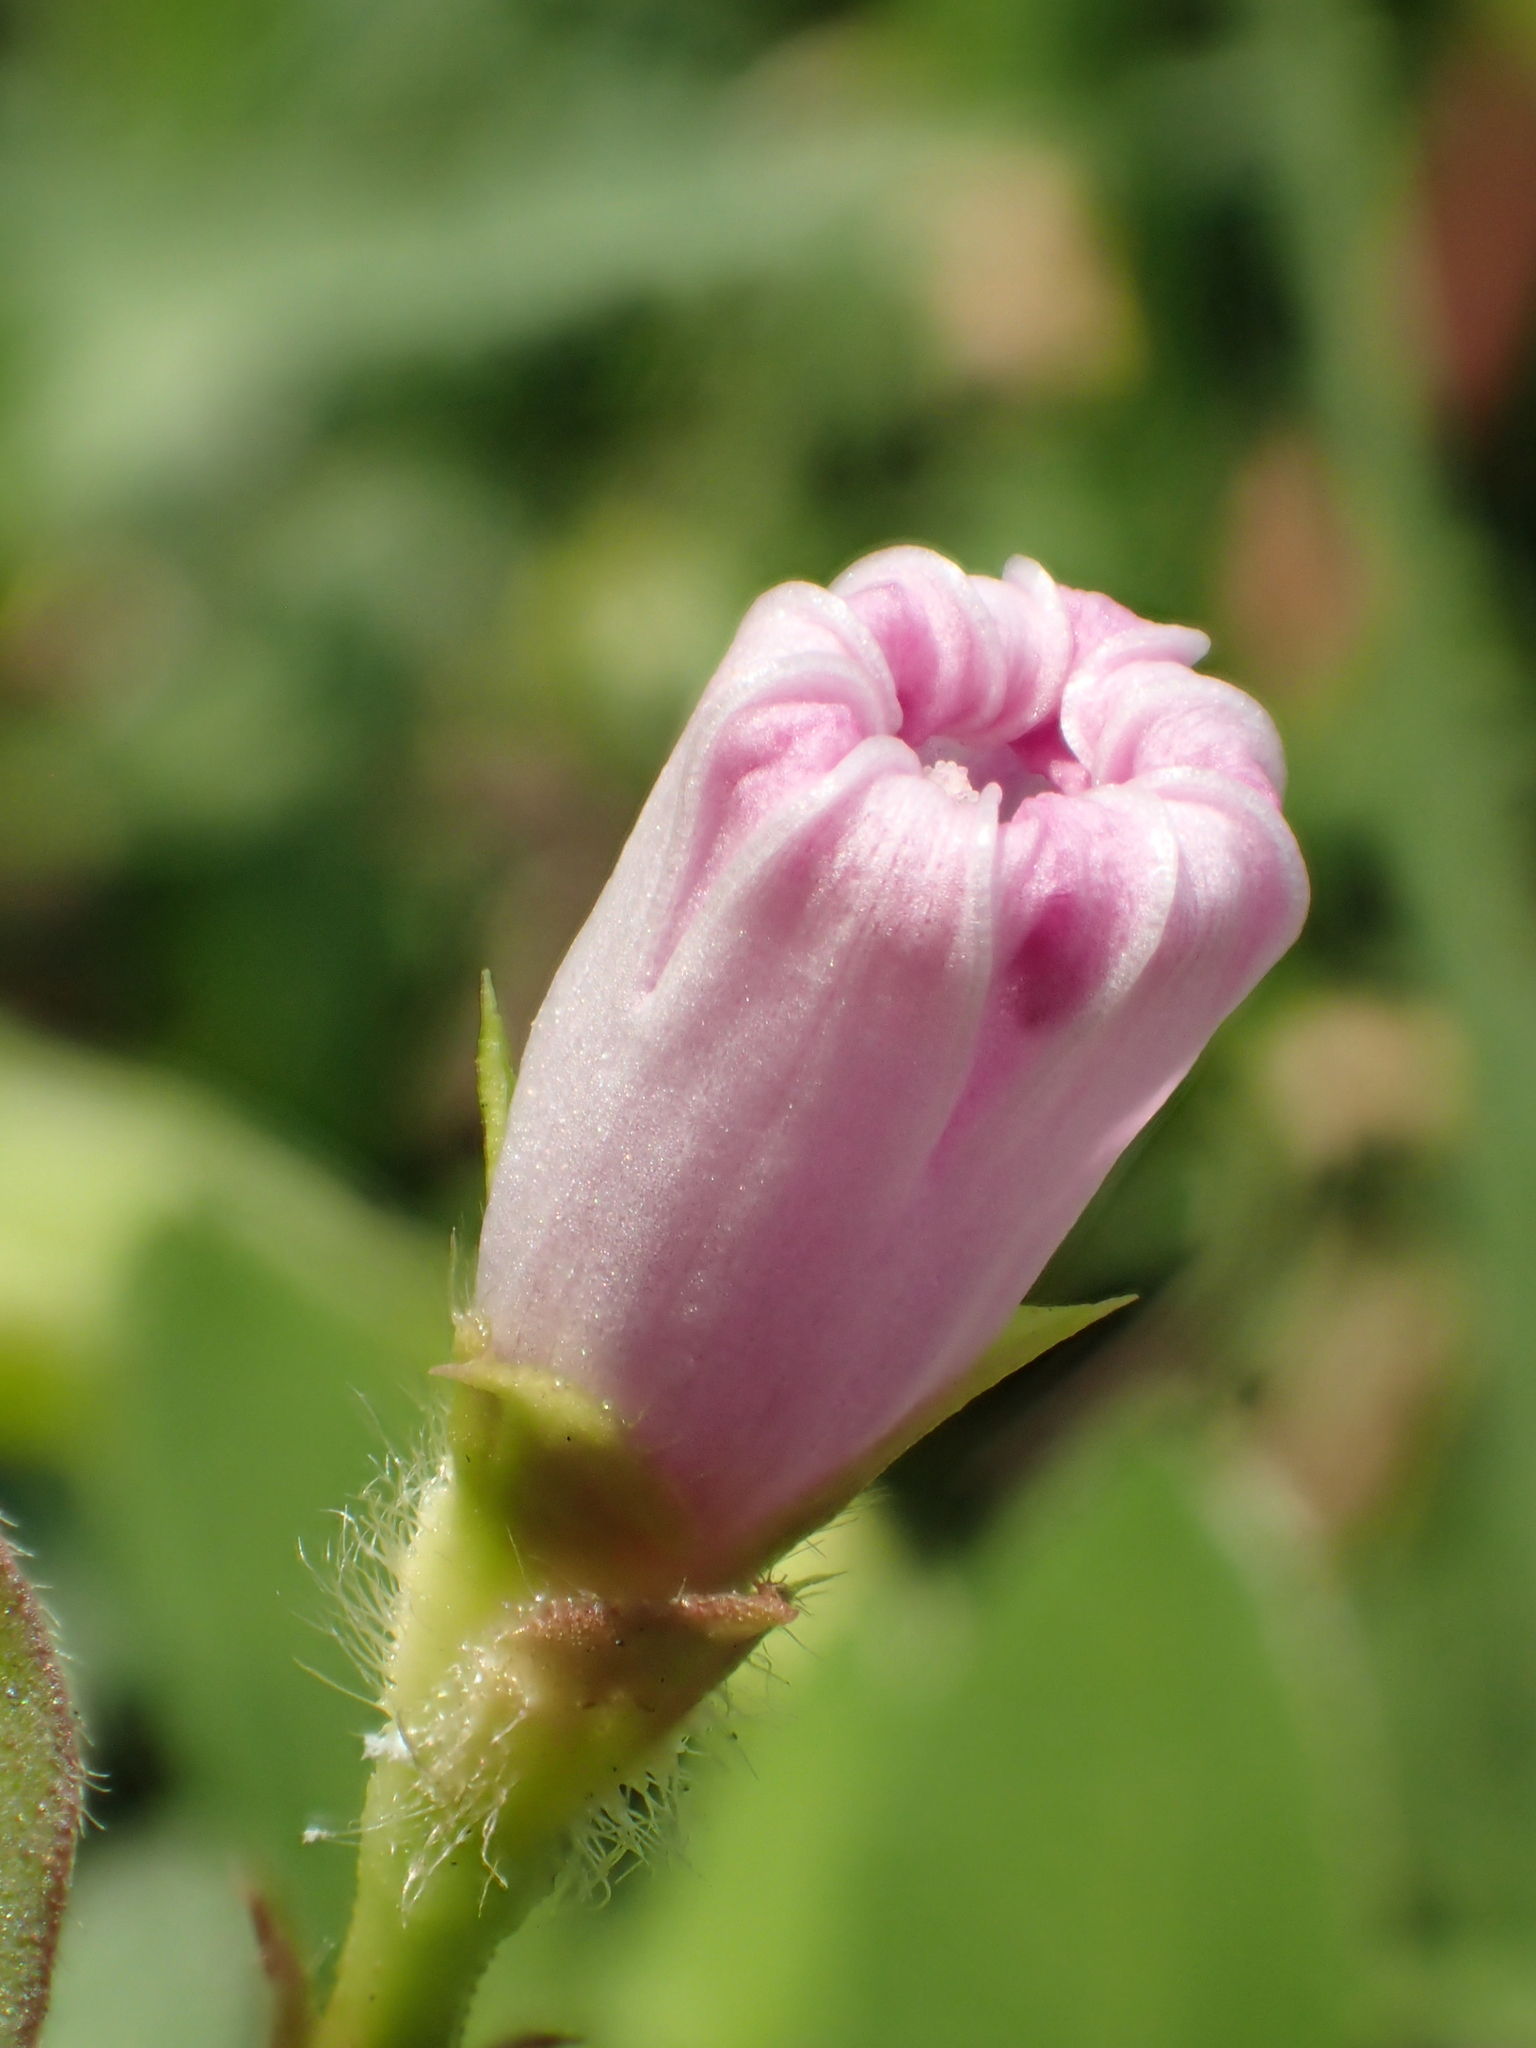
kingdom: Plantae
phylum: Tracheophyta
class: Magnoliopsida
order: Solanales
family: Convolvulaceae
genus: Ipomoea
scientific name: Ipomoea triloba
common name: Little-bell
